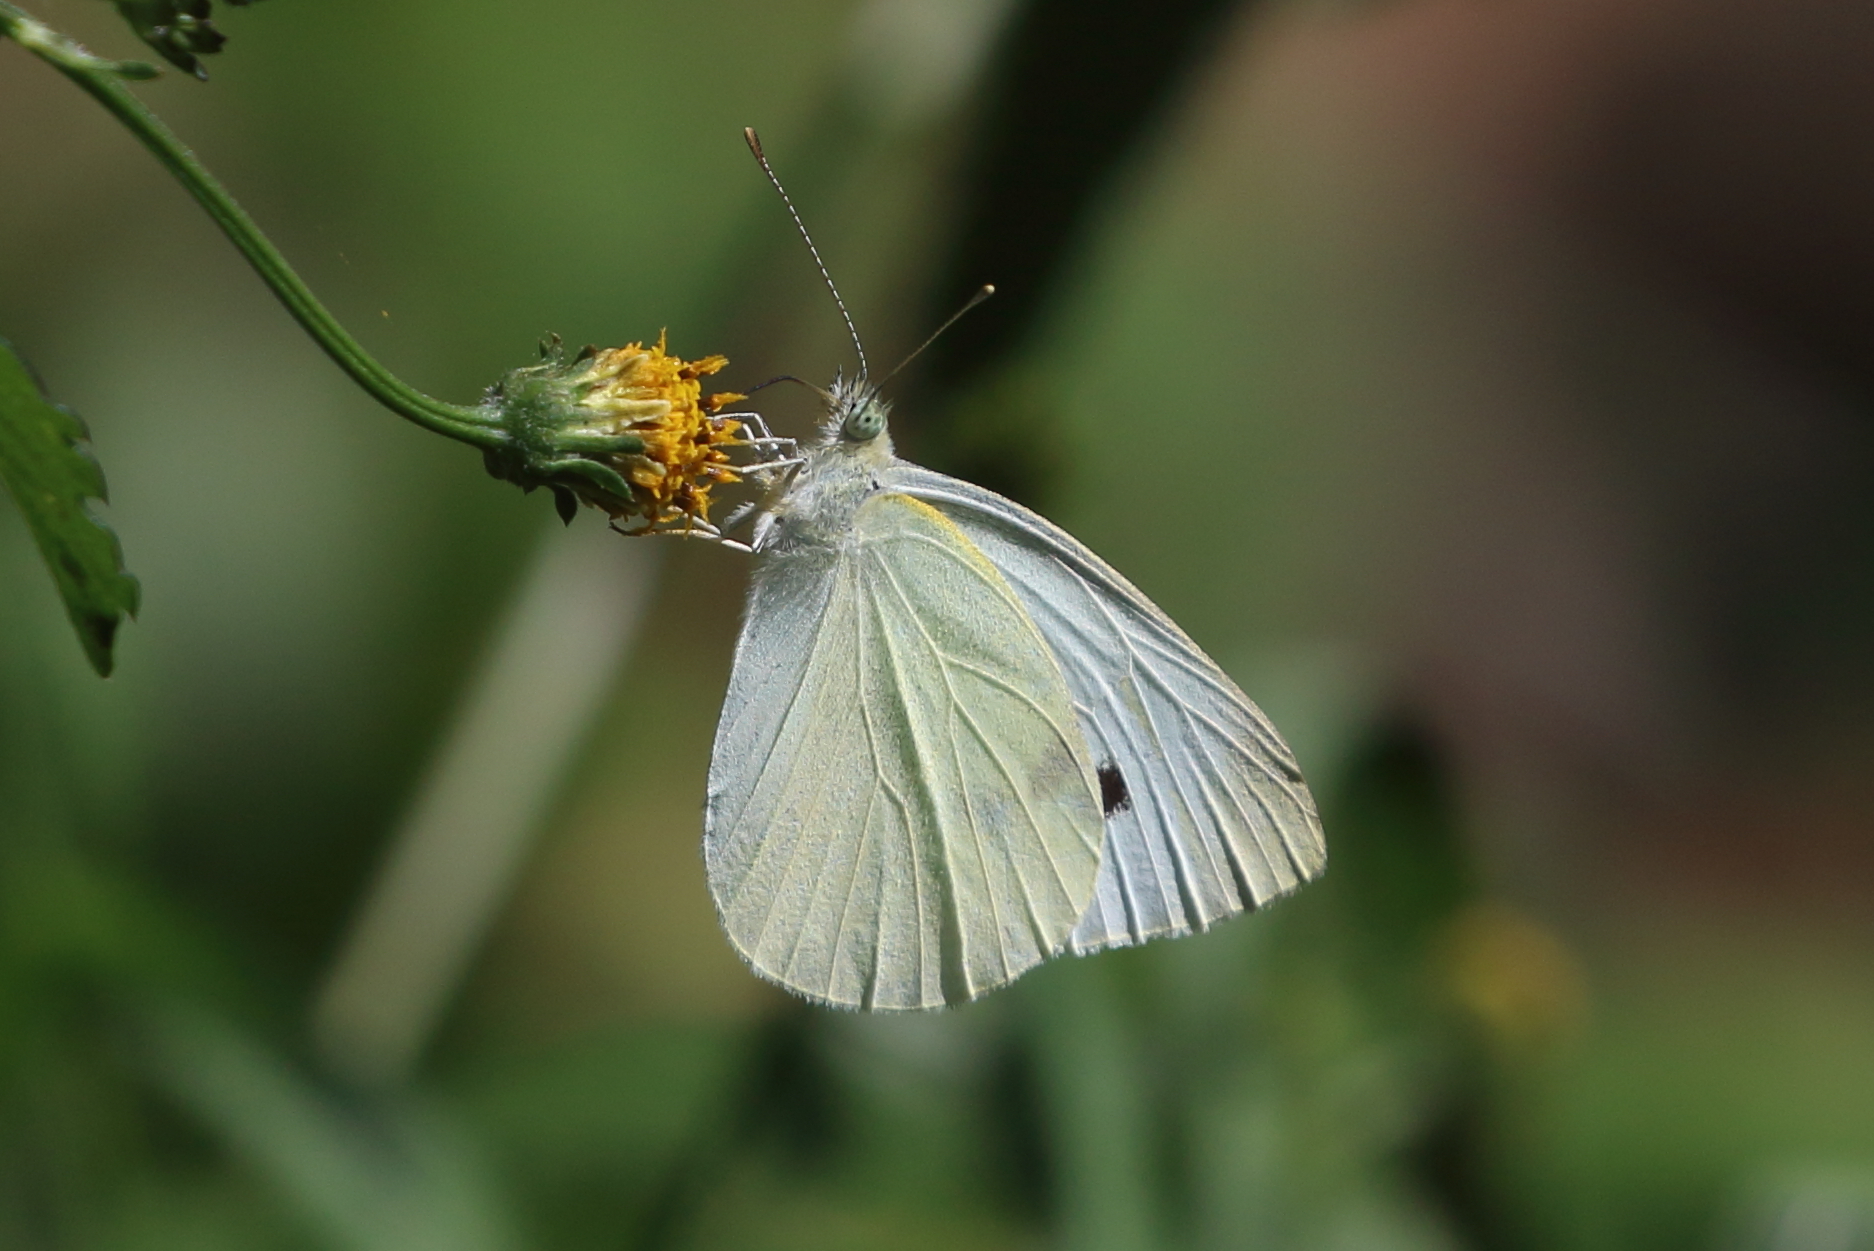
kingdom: Animalia
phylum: Arthropoda
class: Insecta
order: Lepidoptera
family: Pieridae
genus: Pieris
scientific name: Pieris rapae
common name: Small white
